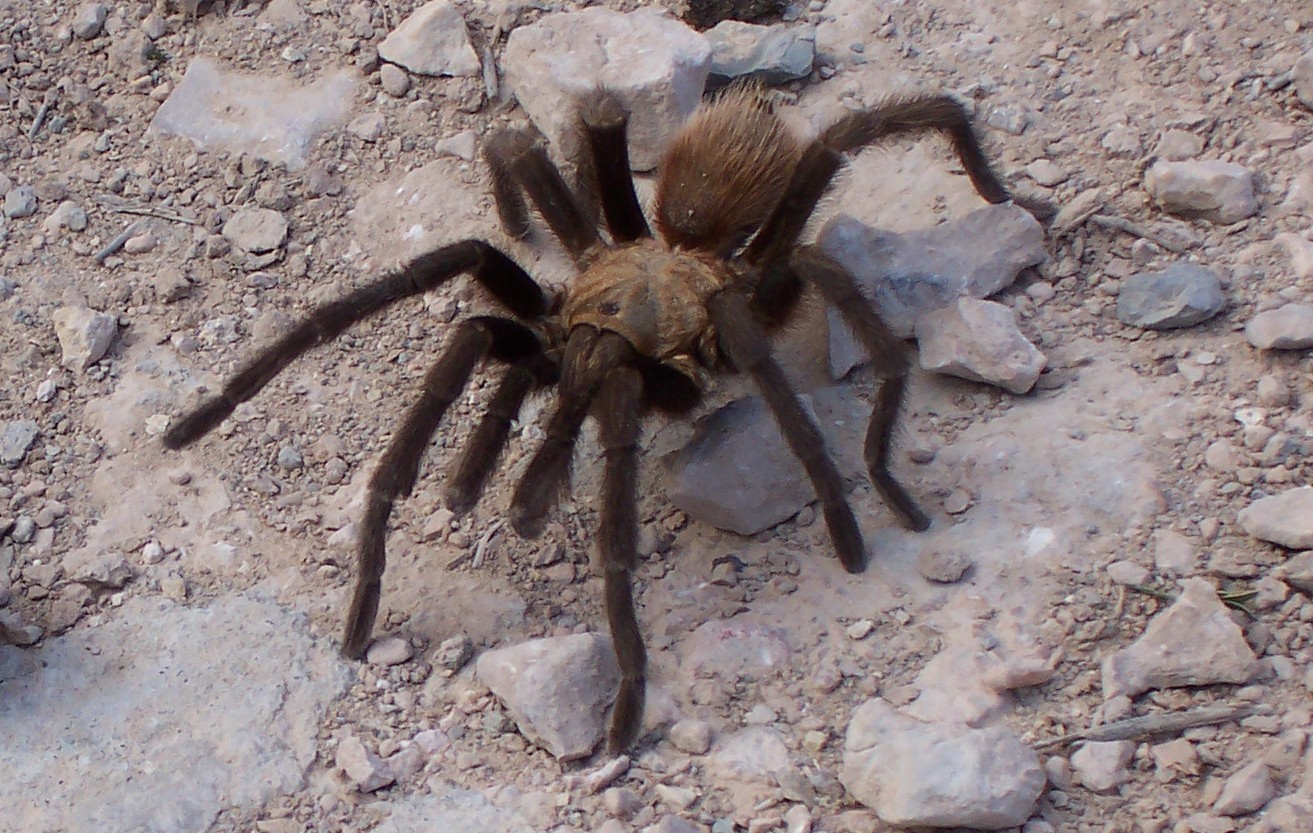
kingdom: Animalia
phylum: Arthropoda
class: Arachnida
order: Araneae
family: Theraphosidae
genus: Aphonopelma
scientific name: Aphonopelma hentzi
